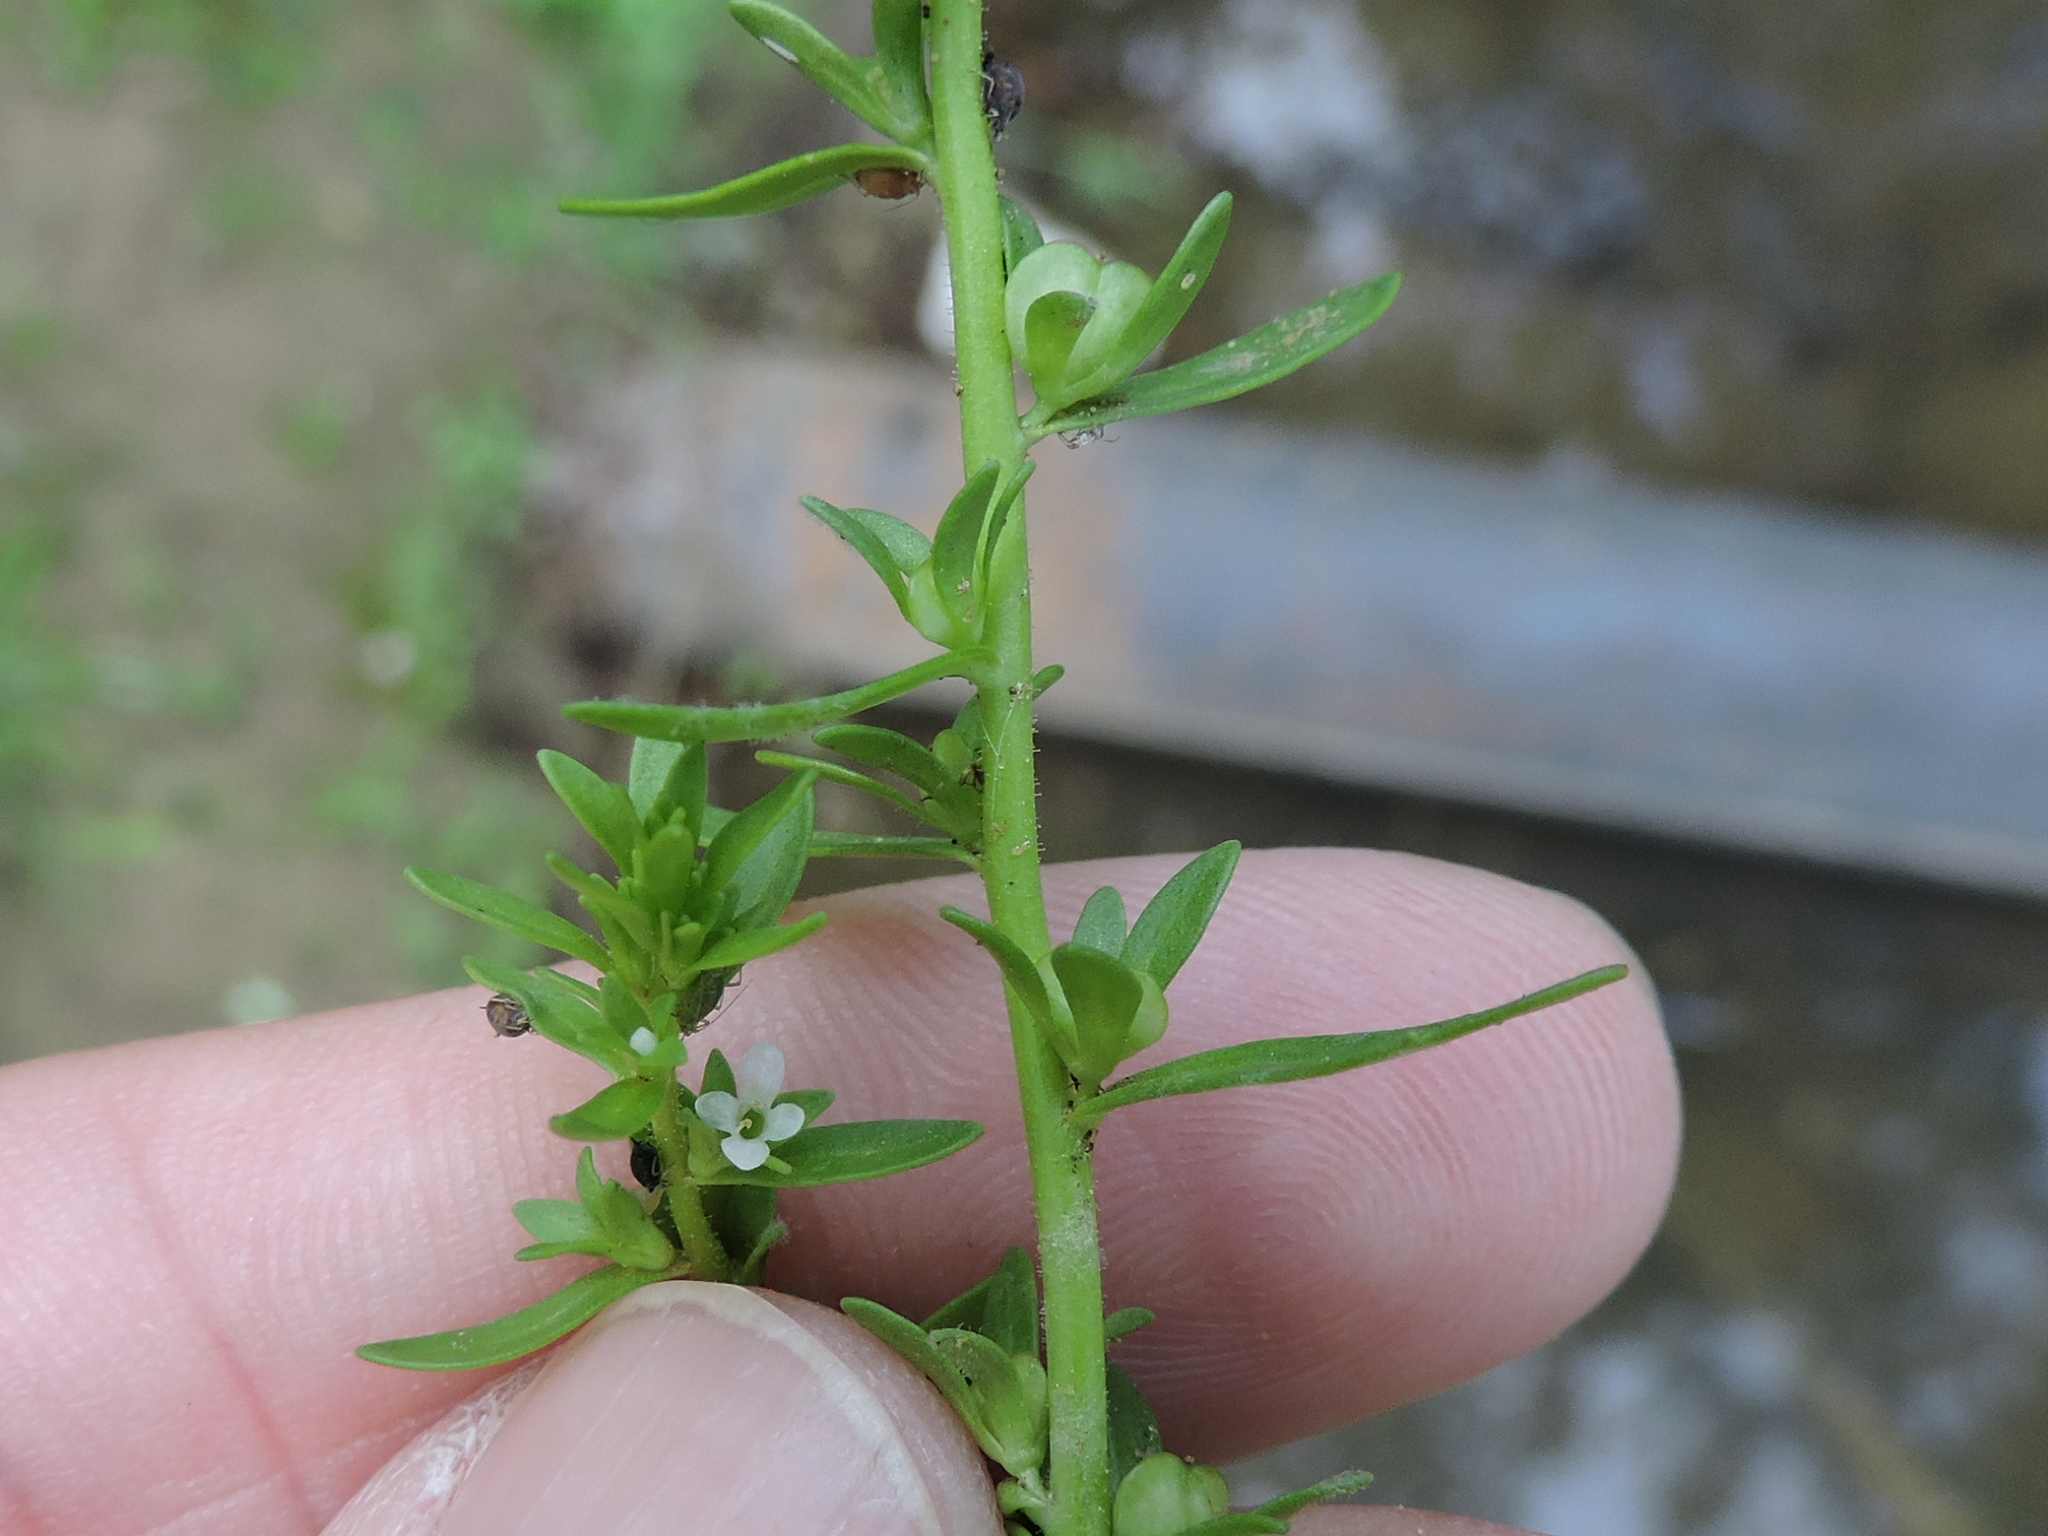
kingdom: Plantae
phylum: Tracheophyta
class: Magnoliopsida
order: Lamiales
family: Plantaginaceae
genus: Veronica
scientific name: Veronica peregrina
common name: Neckweed
